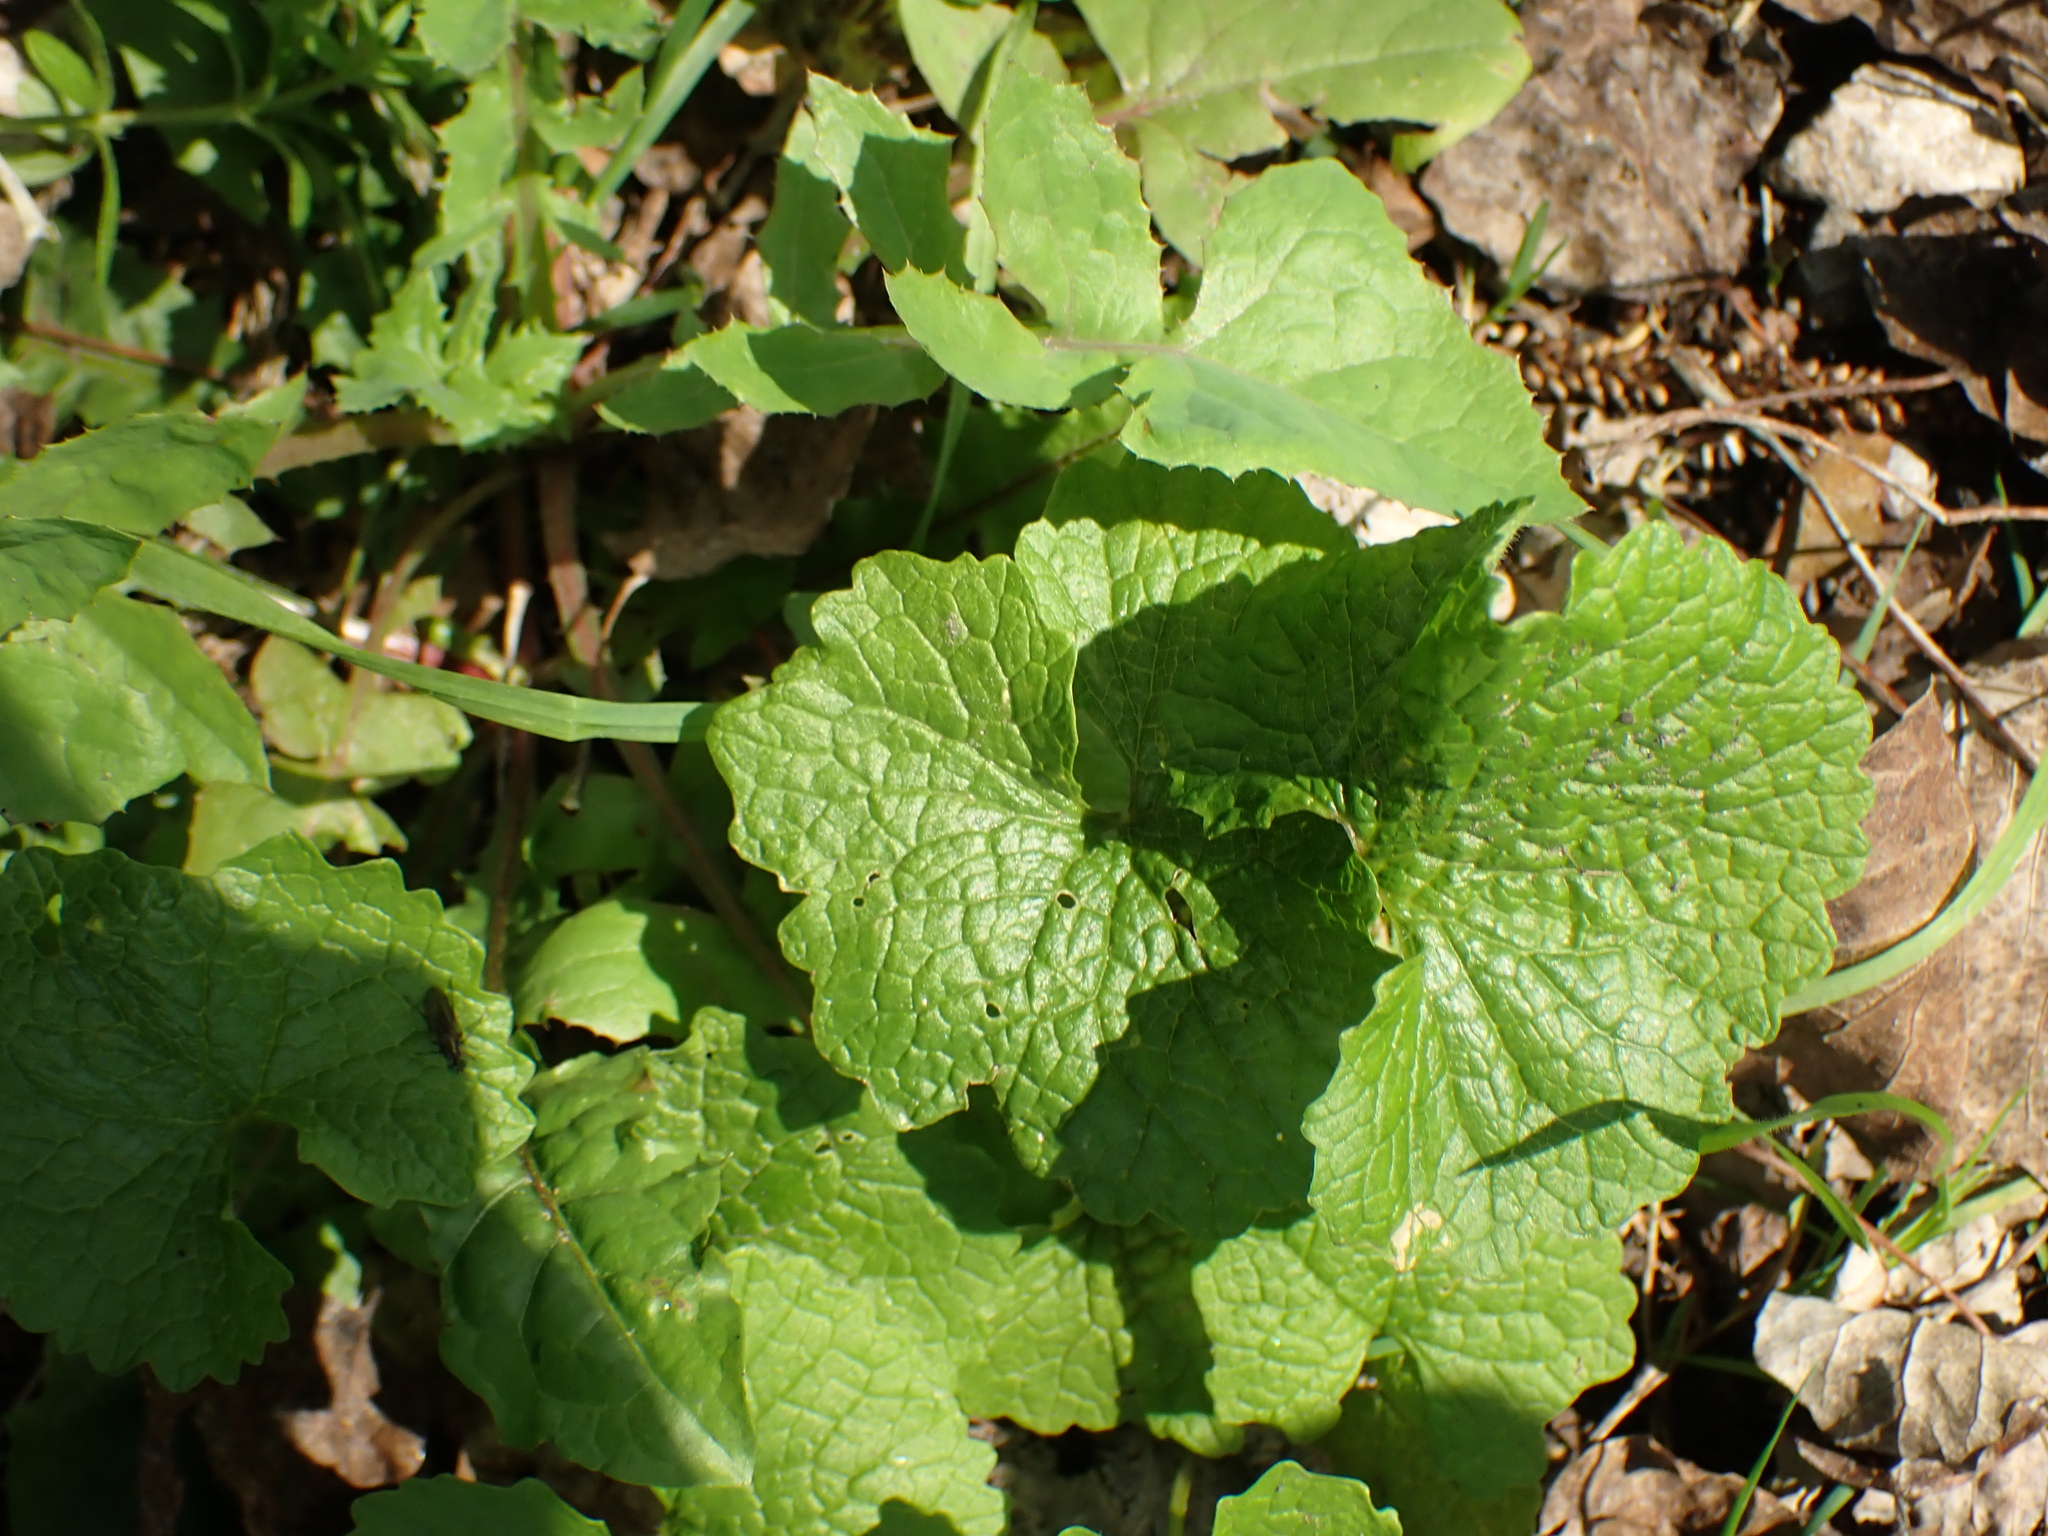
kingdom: Plantae
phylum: Tracheophyta
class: Magnoliopsida
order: Brassicales
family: Brassicaceae
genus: Alliaria
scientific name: Alliaria petiolata
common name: Garlic mustard
